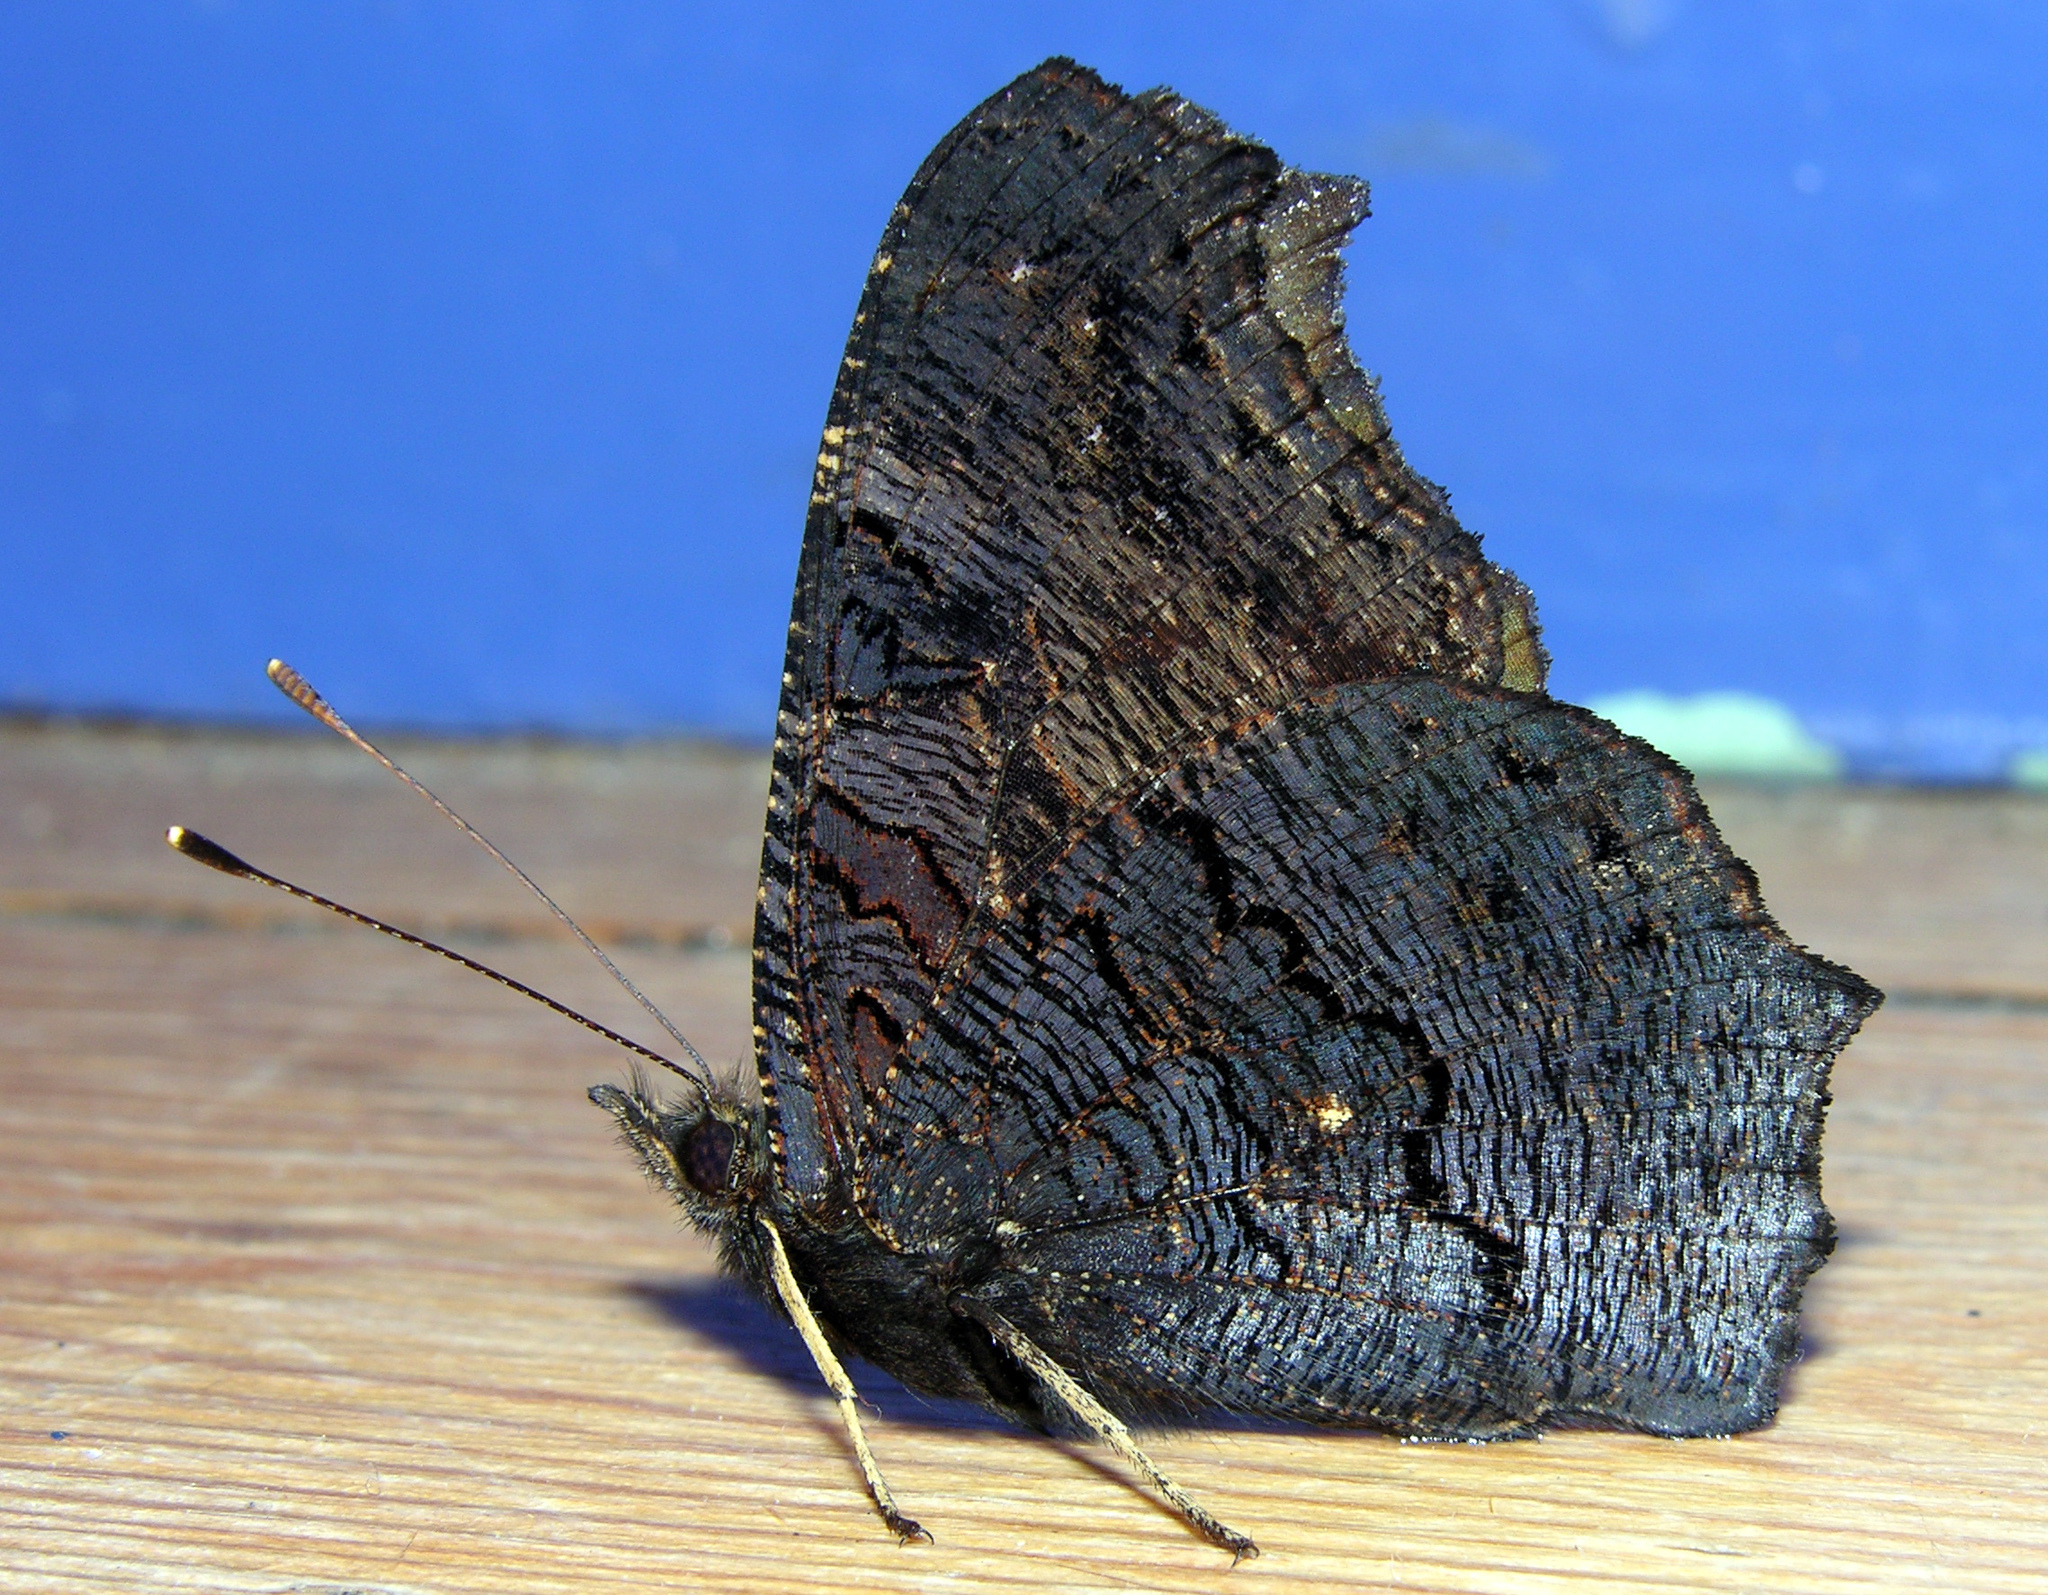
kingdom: Animalia
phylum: Arthropoda
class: Insecta
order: Lepidoptera
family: Nymphalidae
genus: Aglais
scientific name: Aglais io
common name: Peacock
